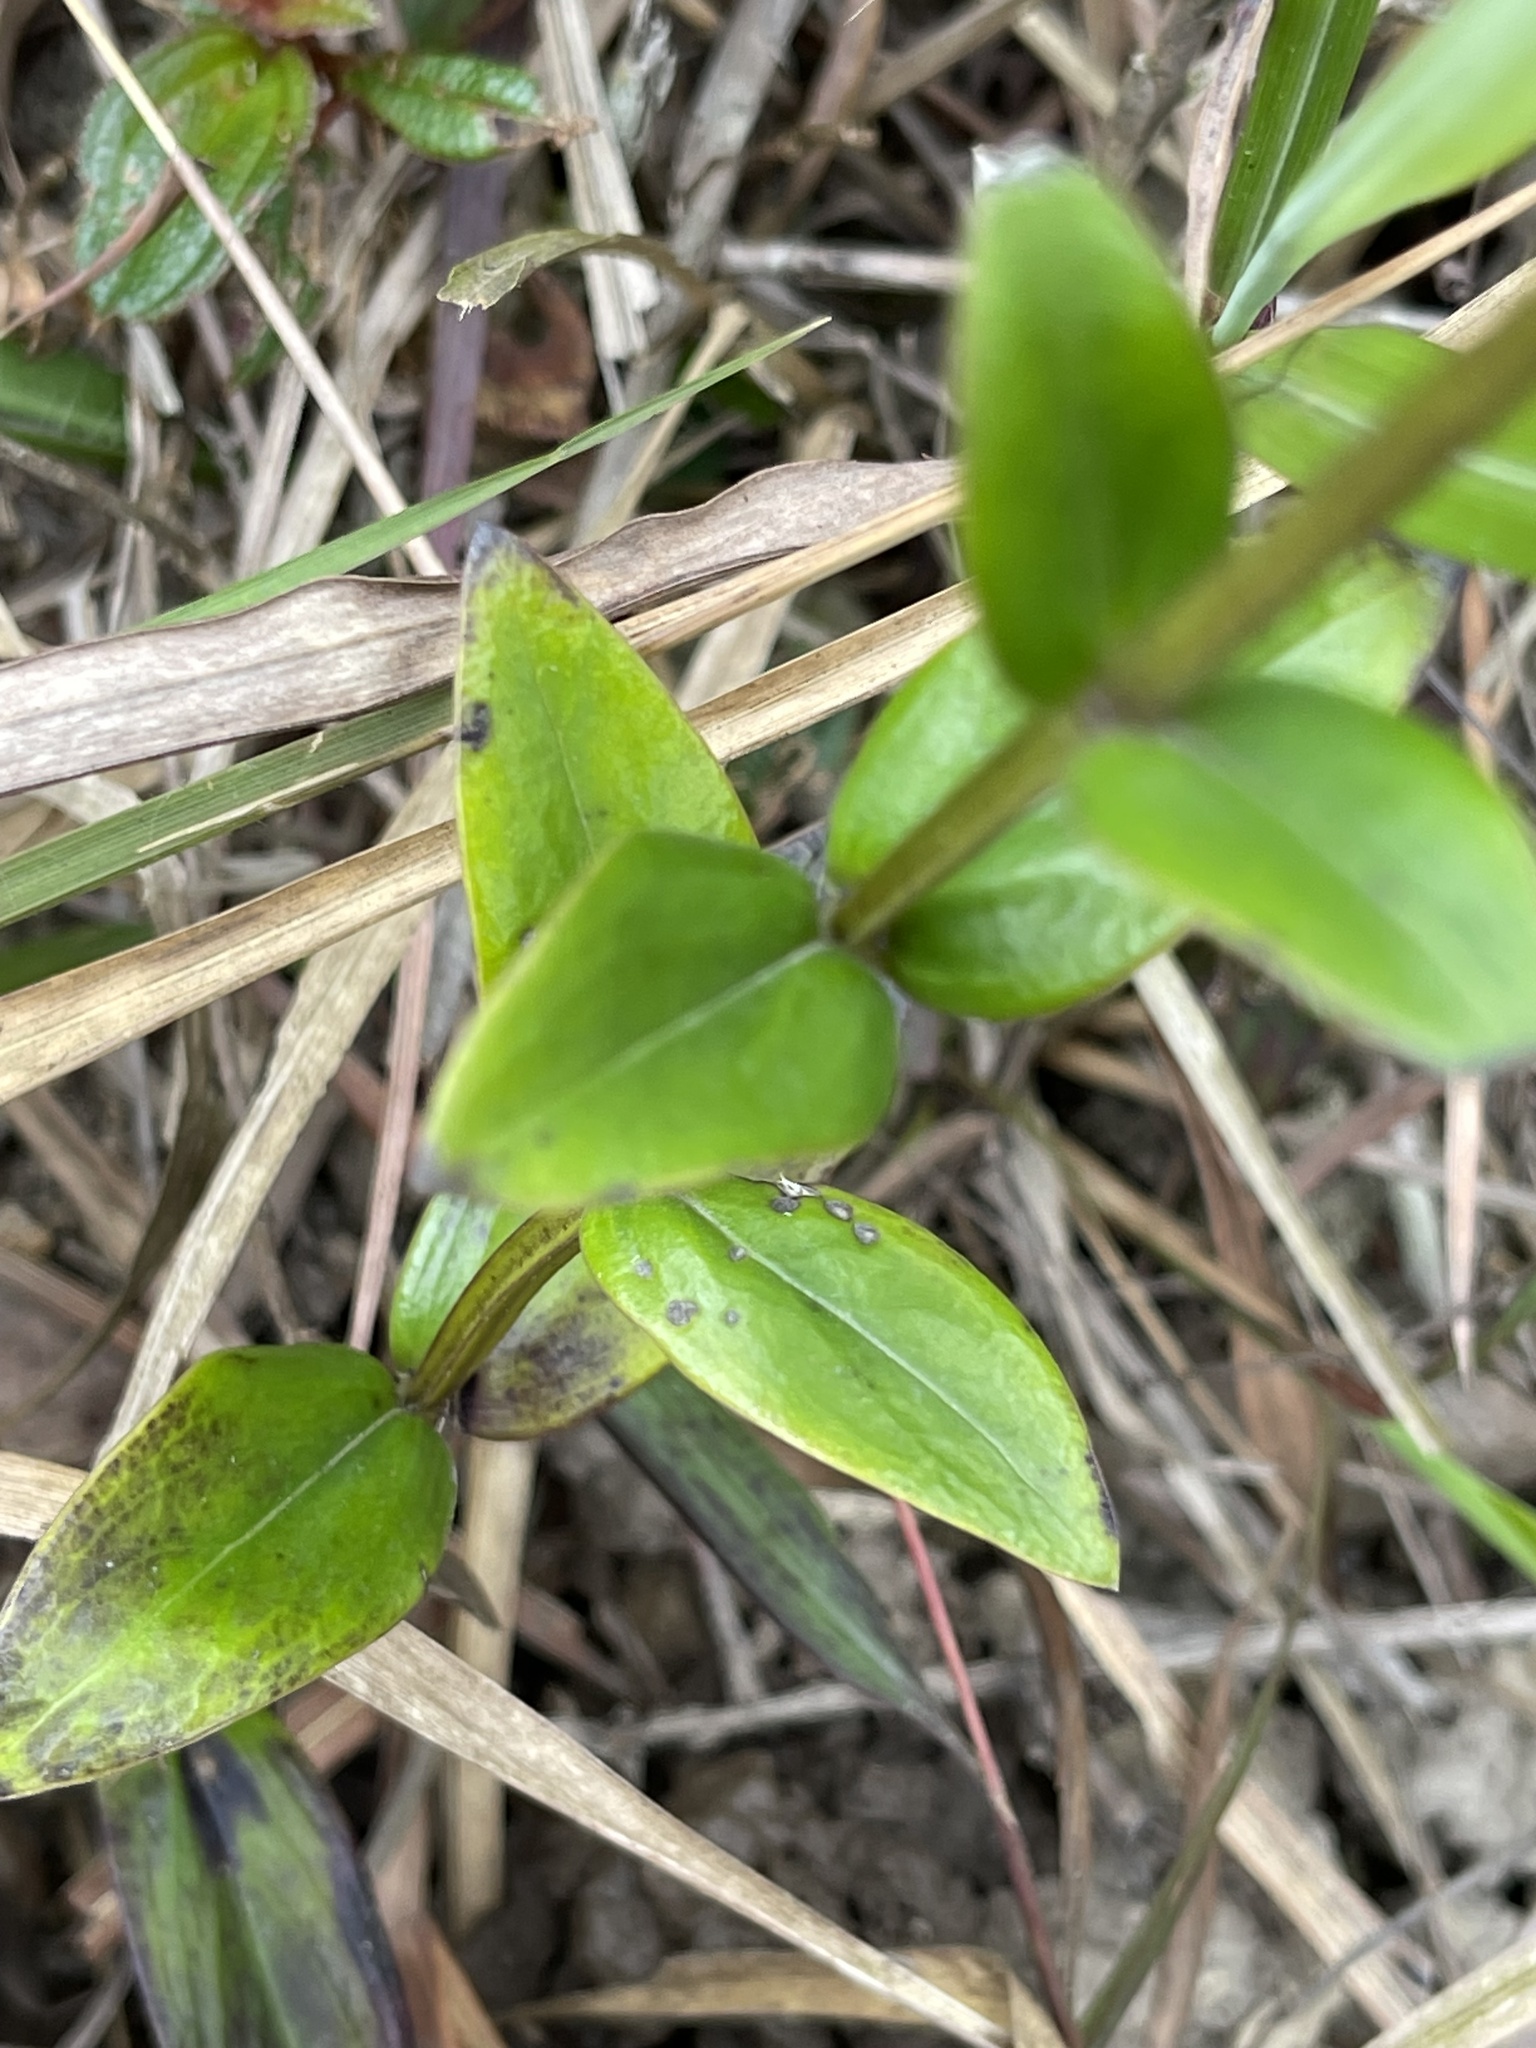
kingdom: Plantae
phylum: Tracheophyta
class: Magnoliopsida
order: Gentianales
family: Rubiaceae
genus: Hedyotis
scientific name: Hedyotis lancea
